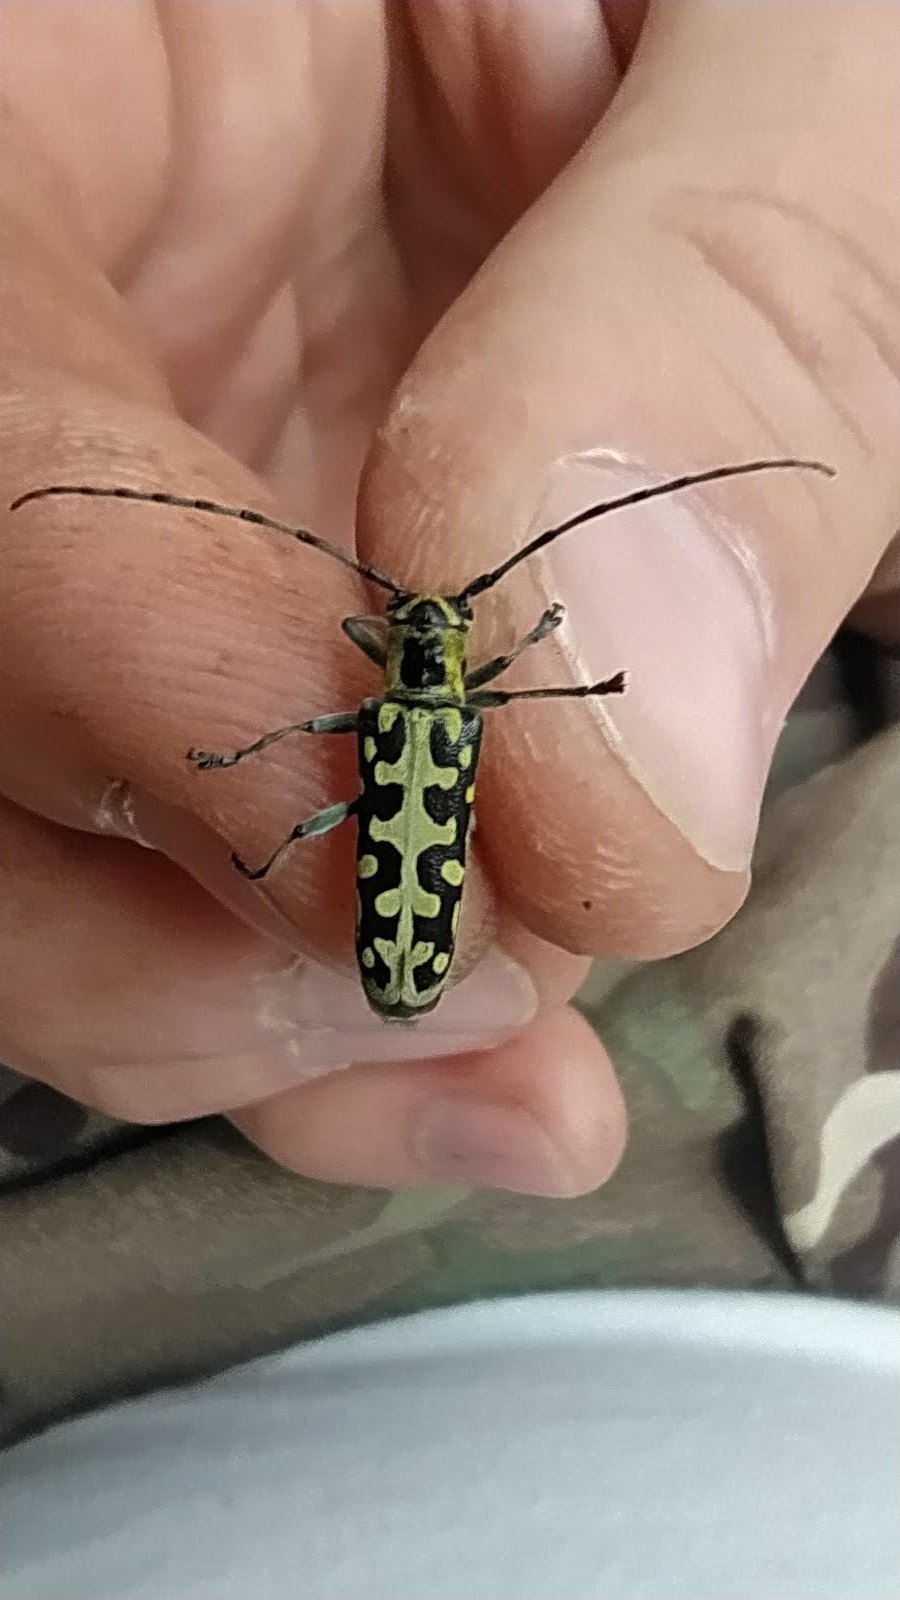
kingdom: Animalia
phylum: Arthropoda
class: Insecta
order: Coleoptera
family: Cerambycidae
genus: Saperda
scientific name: Saperda scalaris
